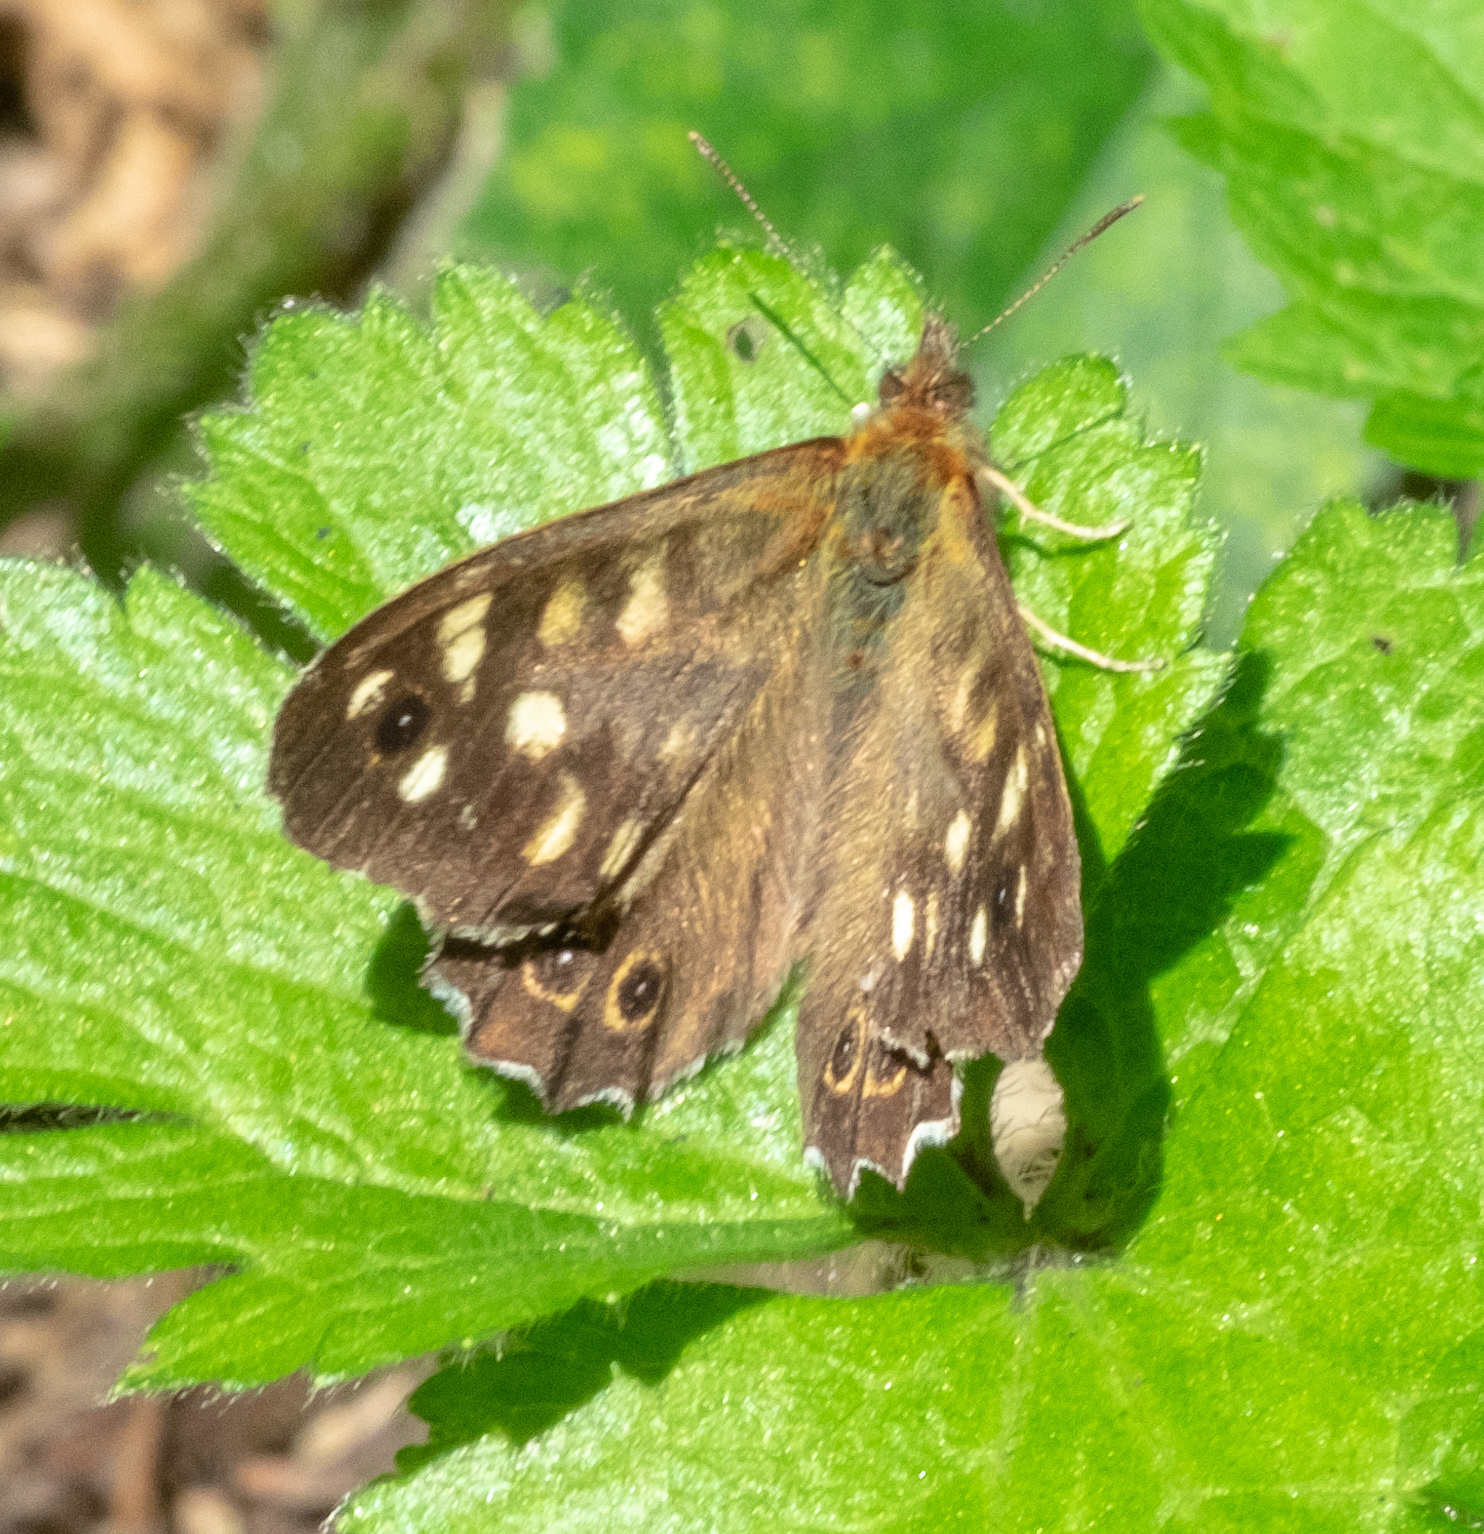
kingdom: Animalia
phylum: Arthropoda
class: Insecta
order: Lepidoptera
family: Nymphalidae
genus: Pararge
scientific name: Pararge aegeria
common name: Speckled wood
